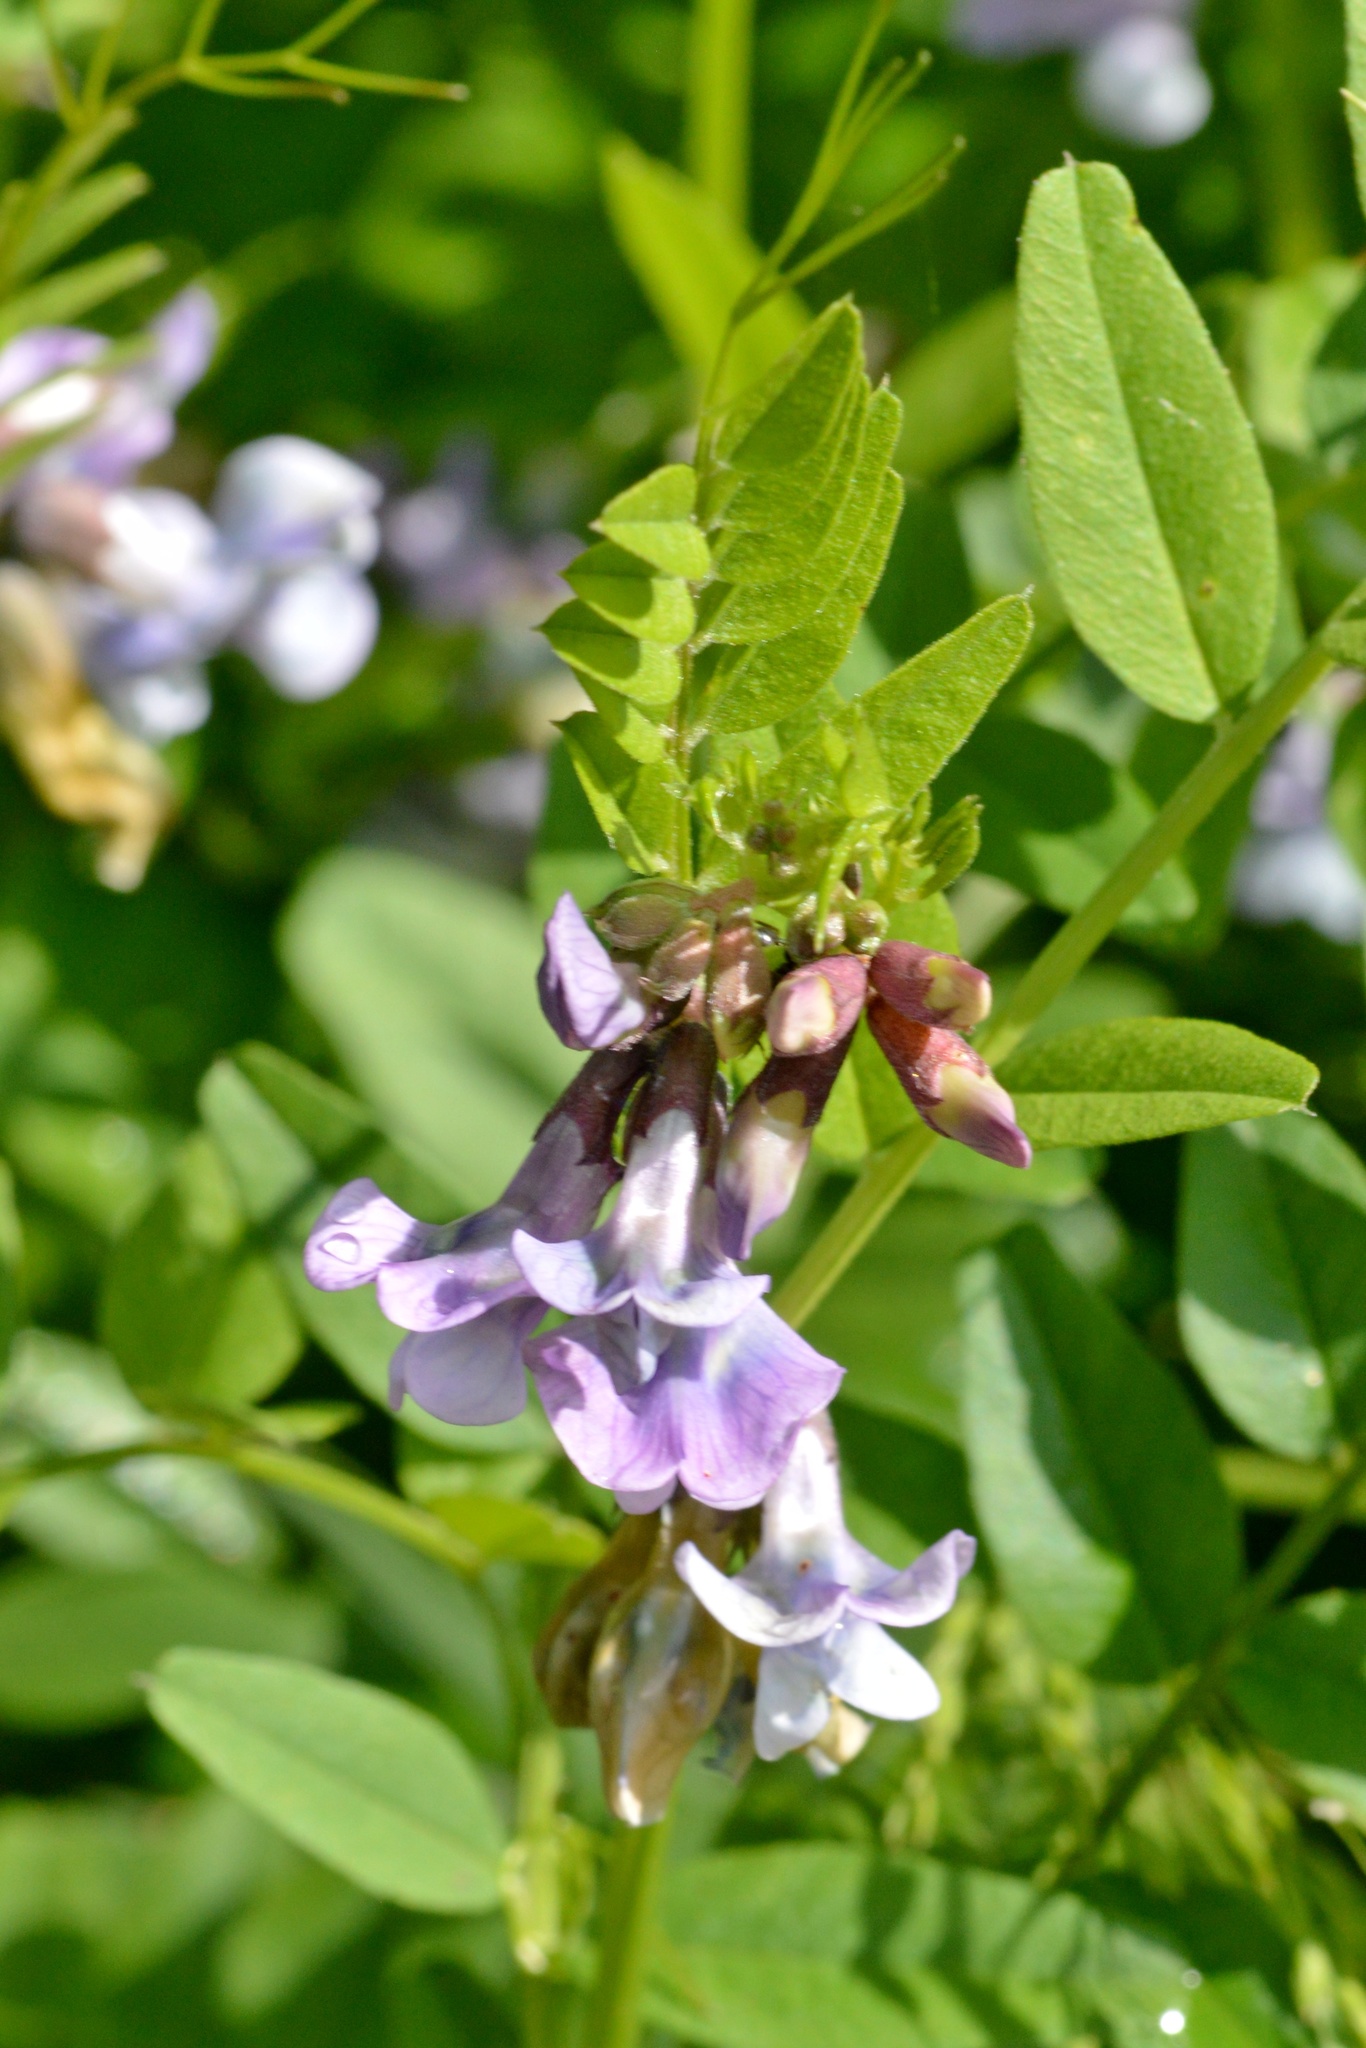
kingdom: Plantae
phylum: Tracheophyta
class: Magnoliopsida
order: Fabales
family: Fabaceae
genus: Vicia
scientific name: Vicia sepium
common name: Bush vetch
